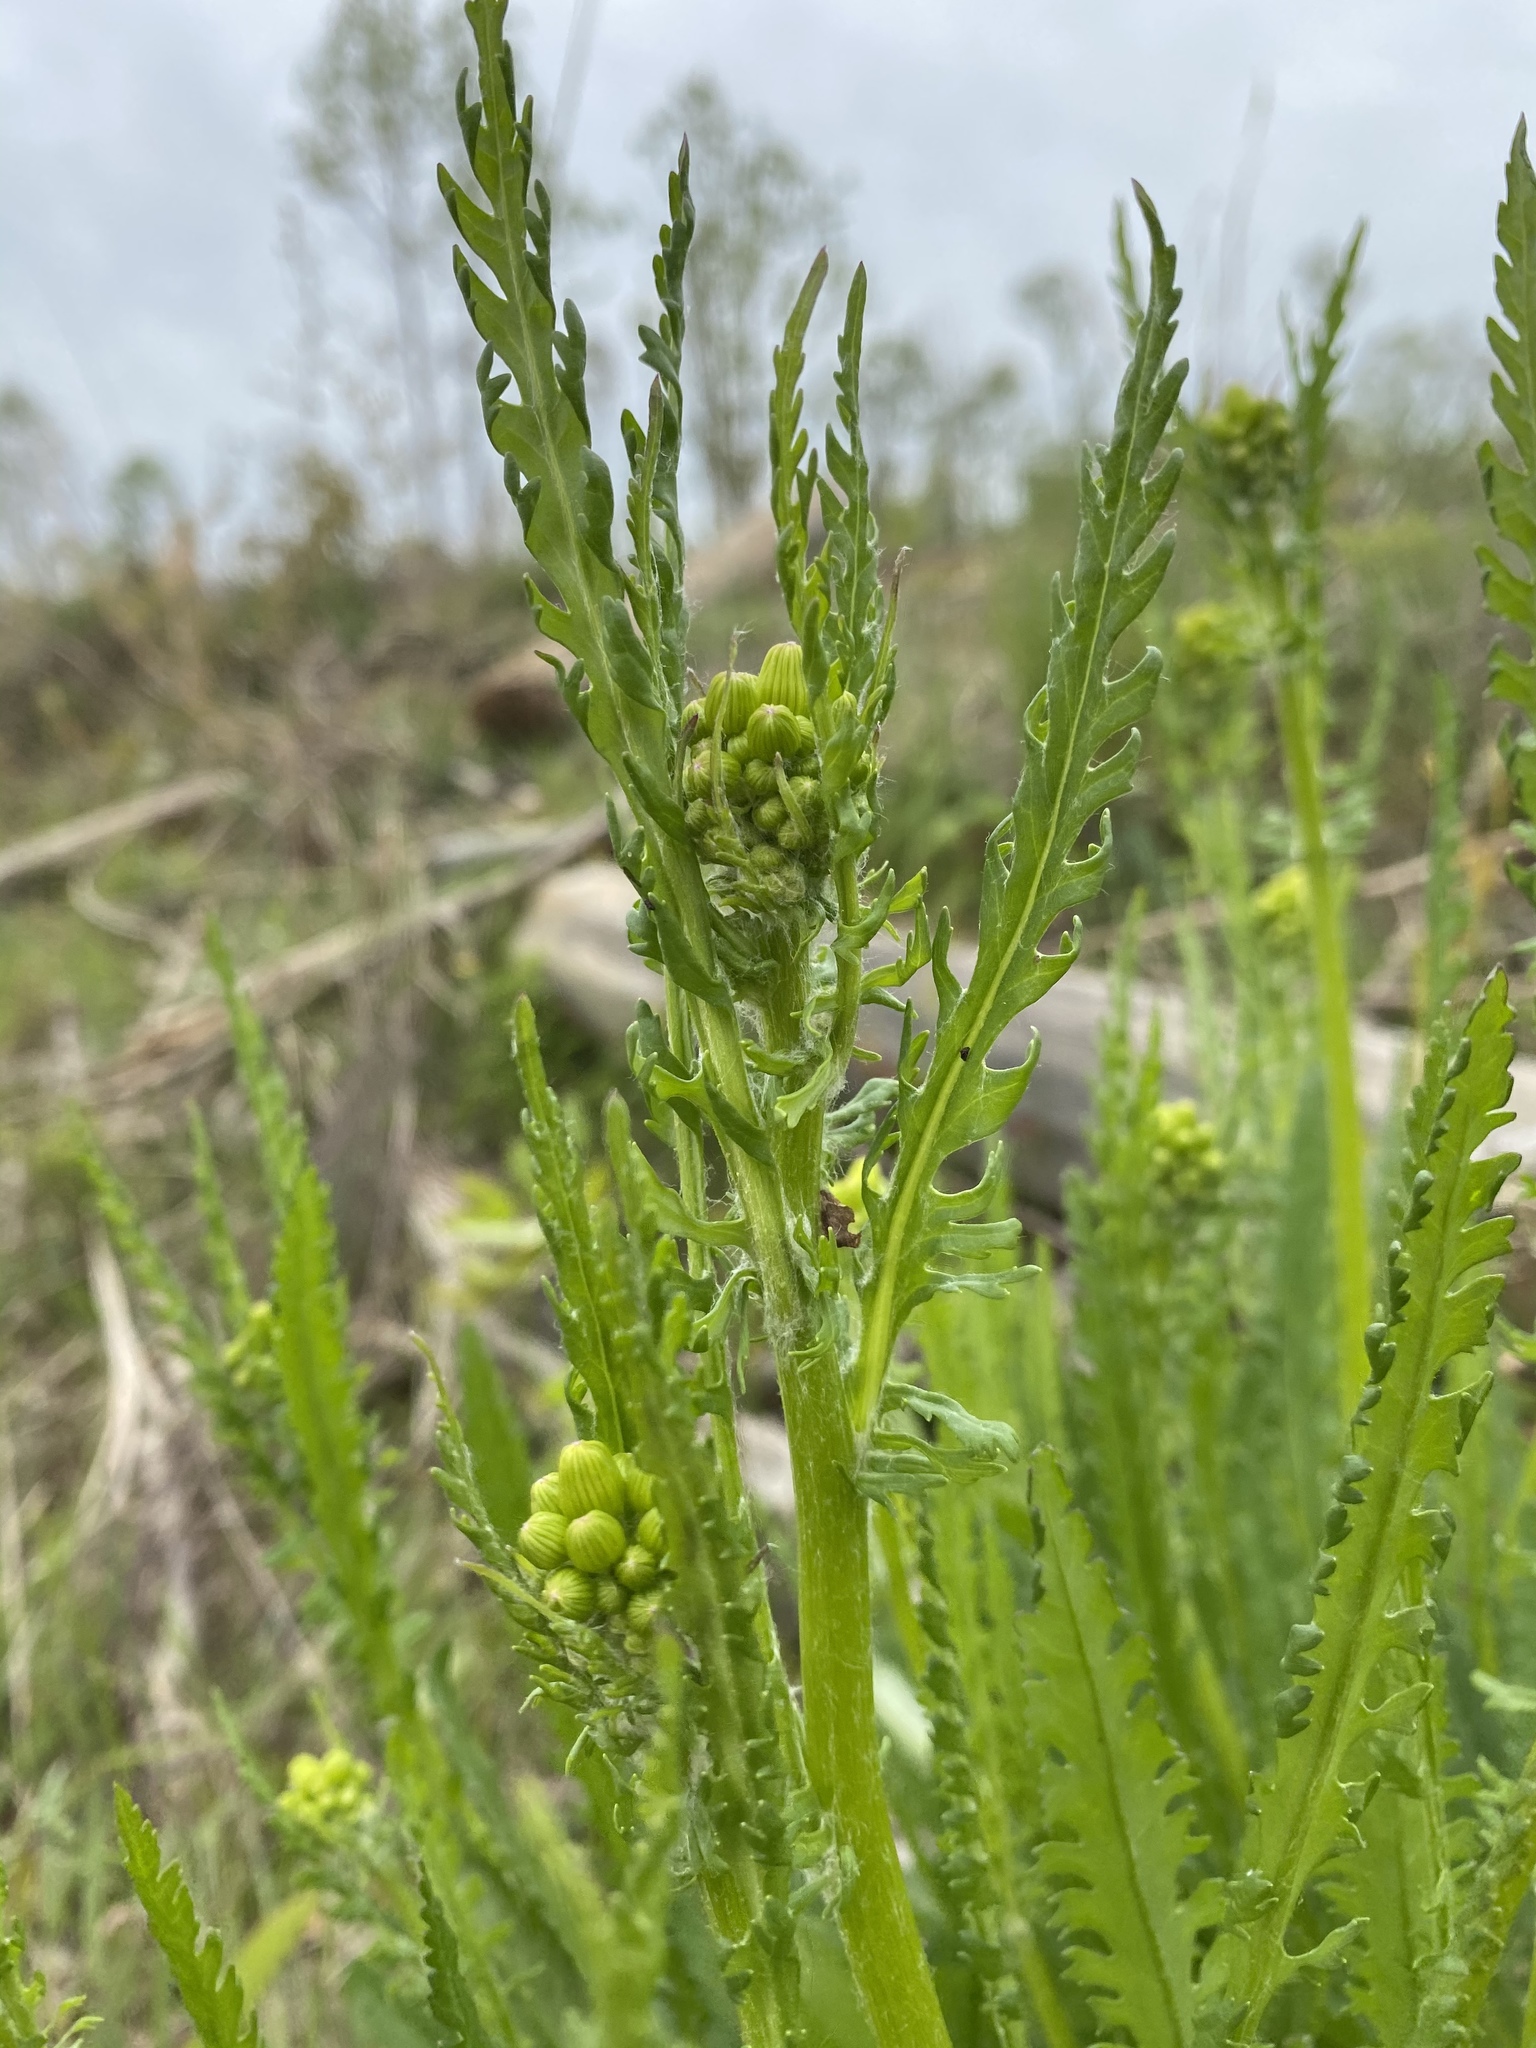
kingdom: Plantae
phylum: Tracheophyta
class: Magnoliopsida
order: Asterales
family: Asteraceae
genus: Packera
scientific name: Packera anonyma
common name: Small ragwort
